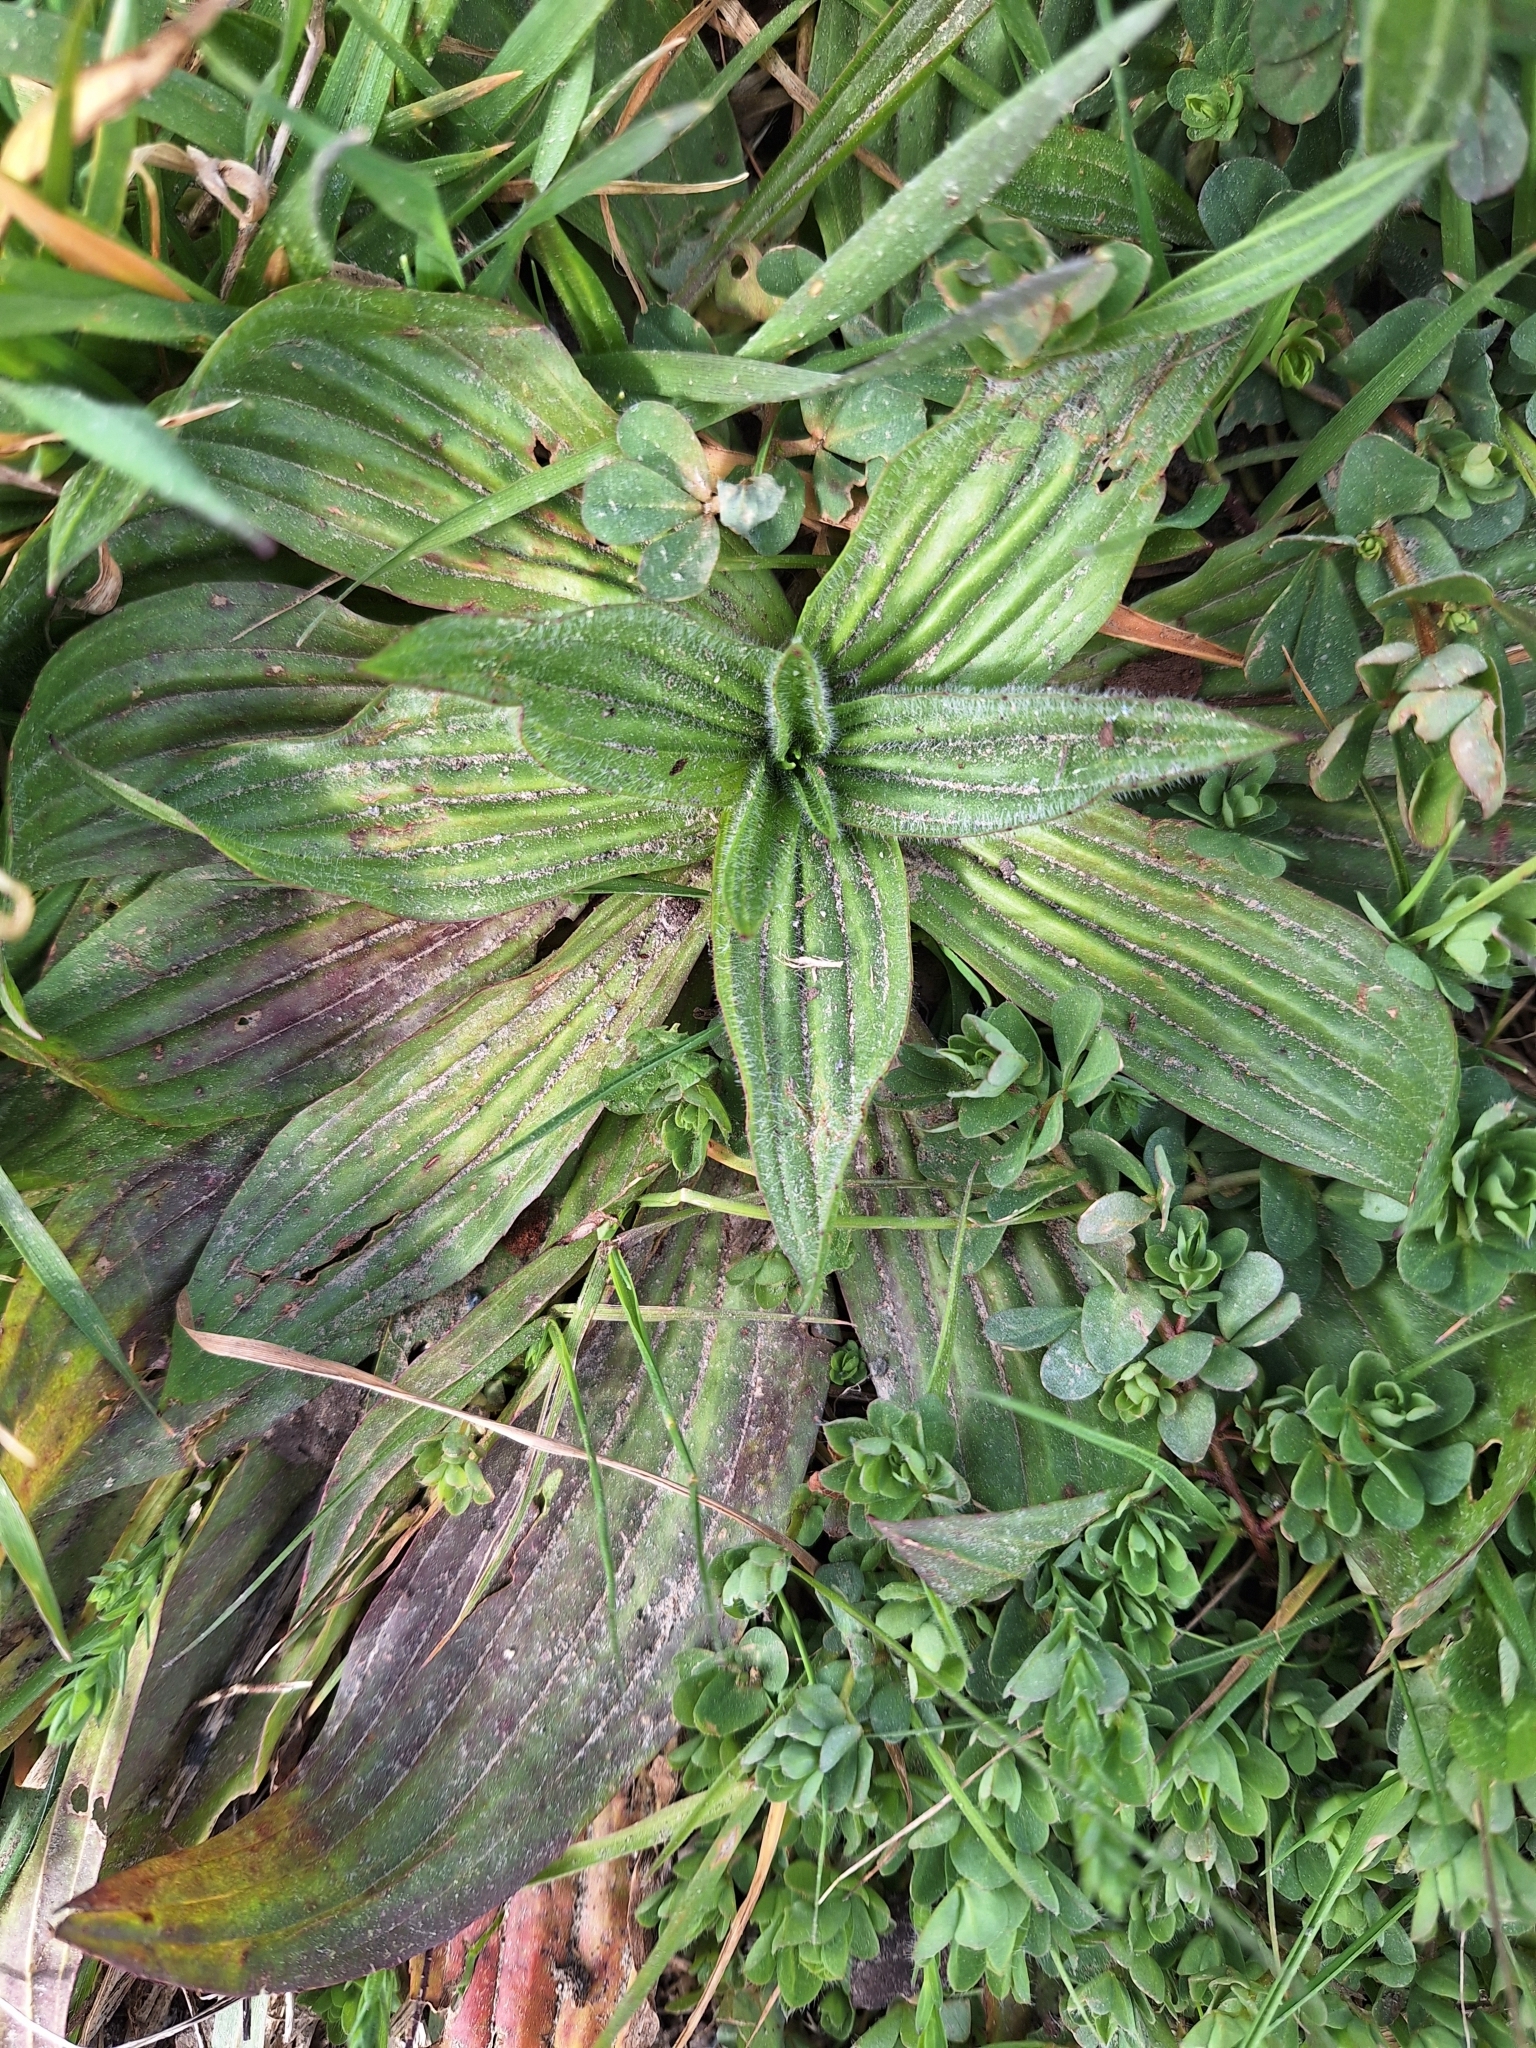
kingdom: Plantae
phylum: Tracheophyta
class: Magnoliopsida
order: Lamiales
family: Plantaginaceae
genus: Plantago
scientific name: Plantago australis
